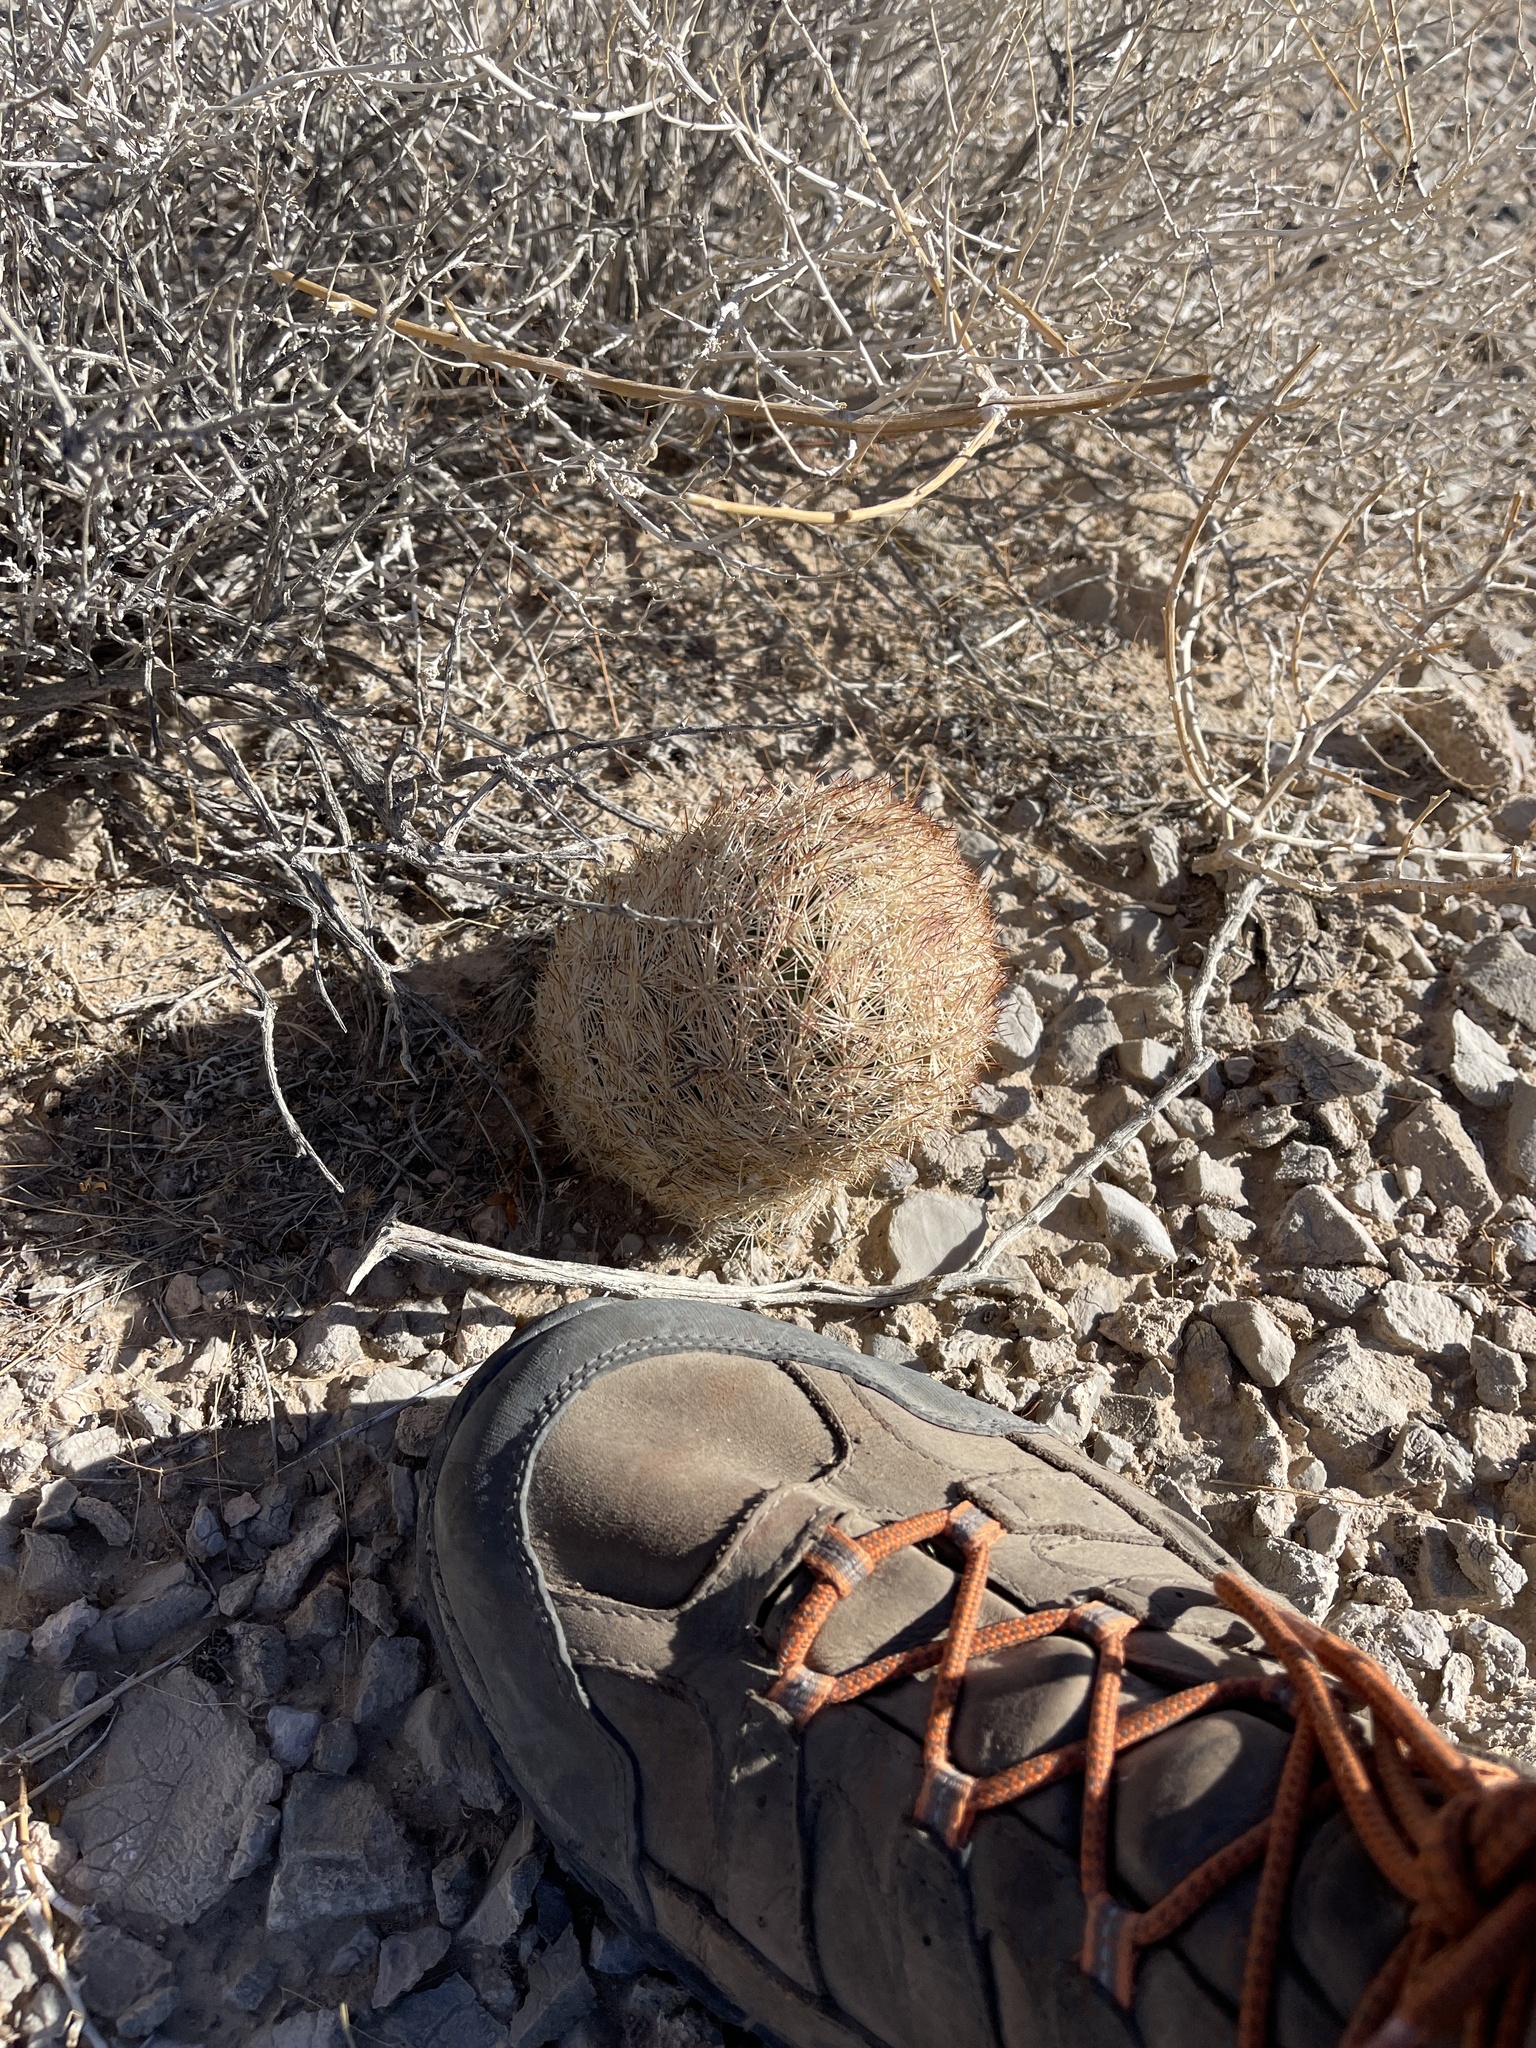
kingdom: Plantae
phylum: Tracheophyta
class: Magnoliopsida
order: Caryophyllales
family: Cactaceae
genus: Pelecyphora
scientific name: Pelecyphora dasyacantha
